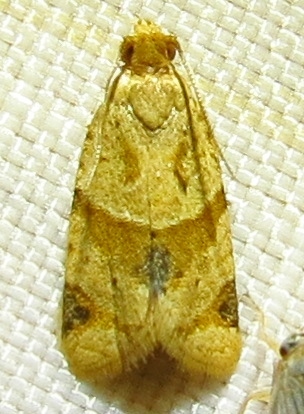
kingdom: Animalia
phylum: Arthropoda
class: Insecta
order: Lepidoptera
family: Tortricidae
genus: Clepsis
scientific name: Clepsis peritana
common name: Garden tortrix
